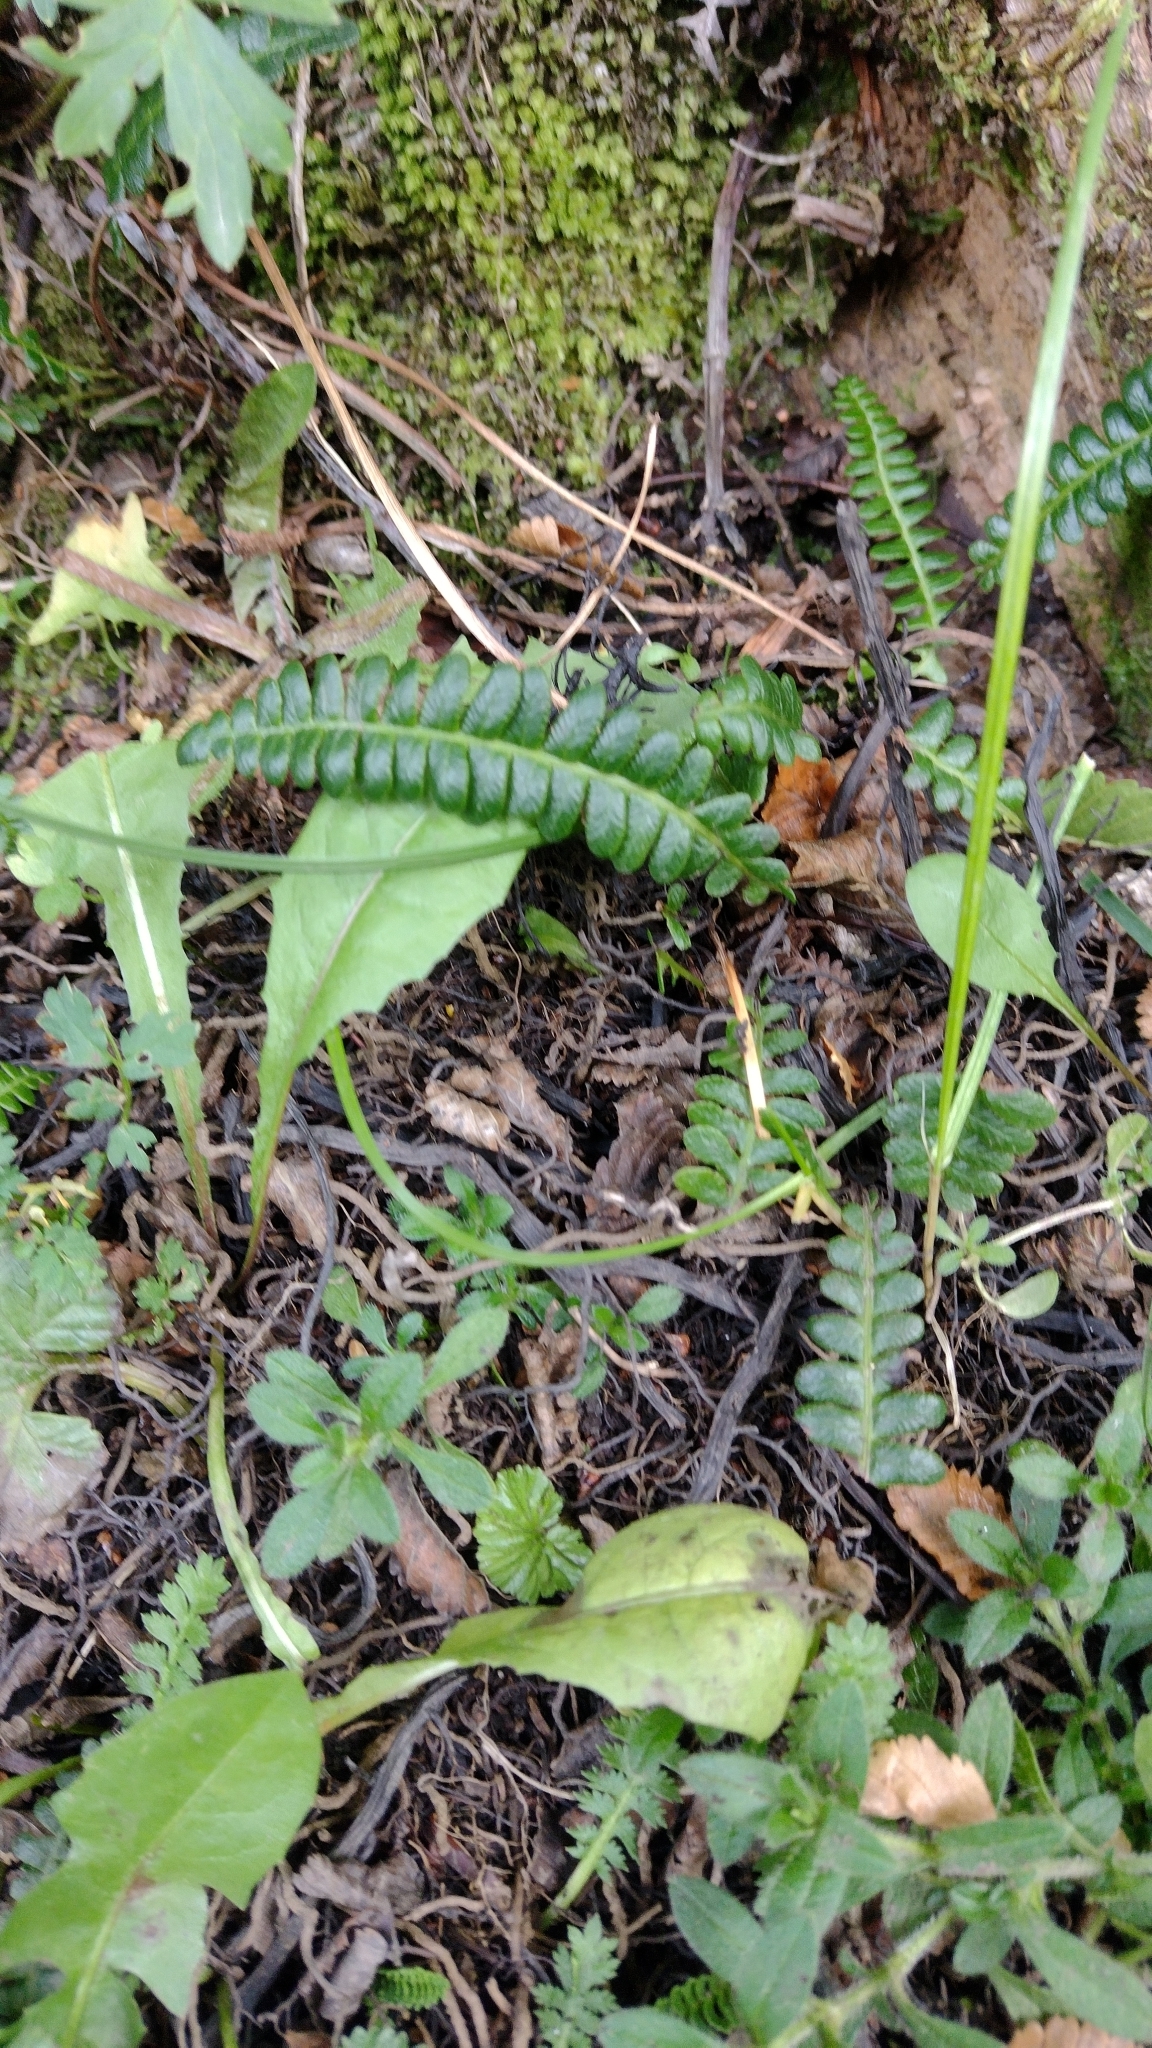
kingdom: Plantae
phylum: Tracheophyta
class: Polypodiopsida
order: Polypodiales
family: Blechnaceae
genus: Austroblechnum
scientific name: Austroblechnum penna-marina
